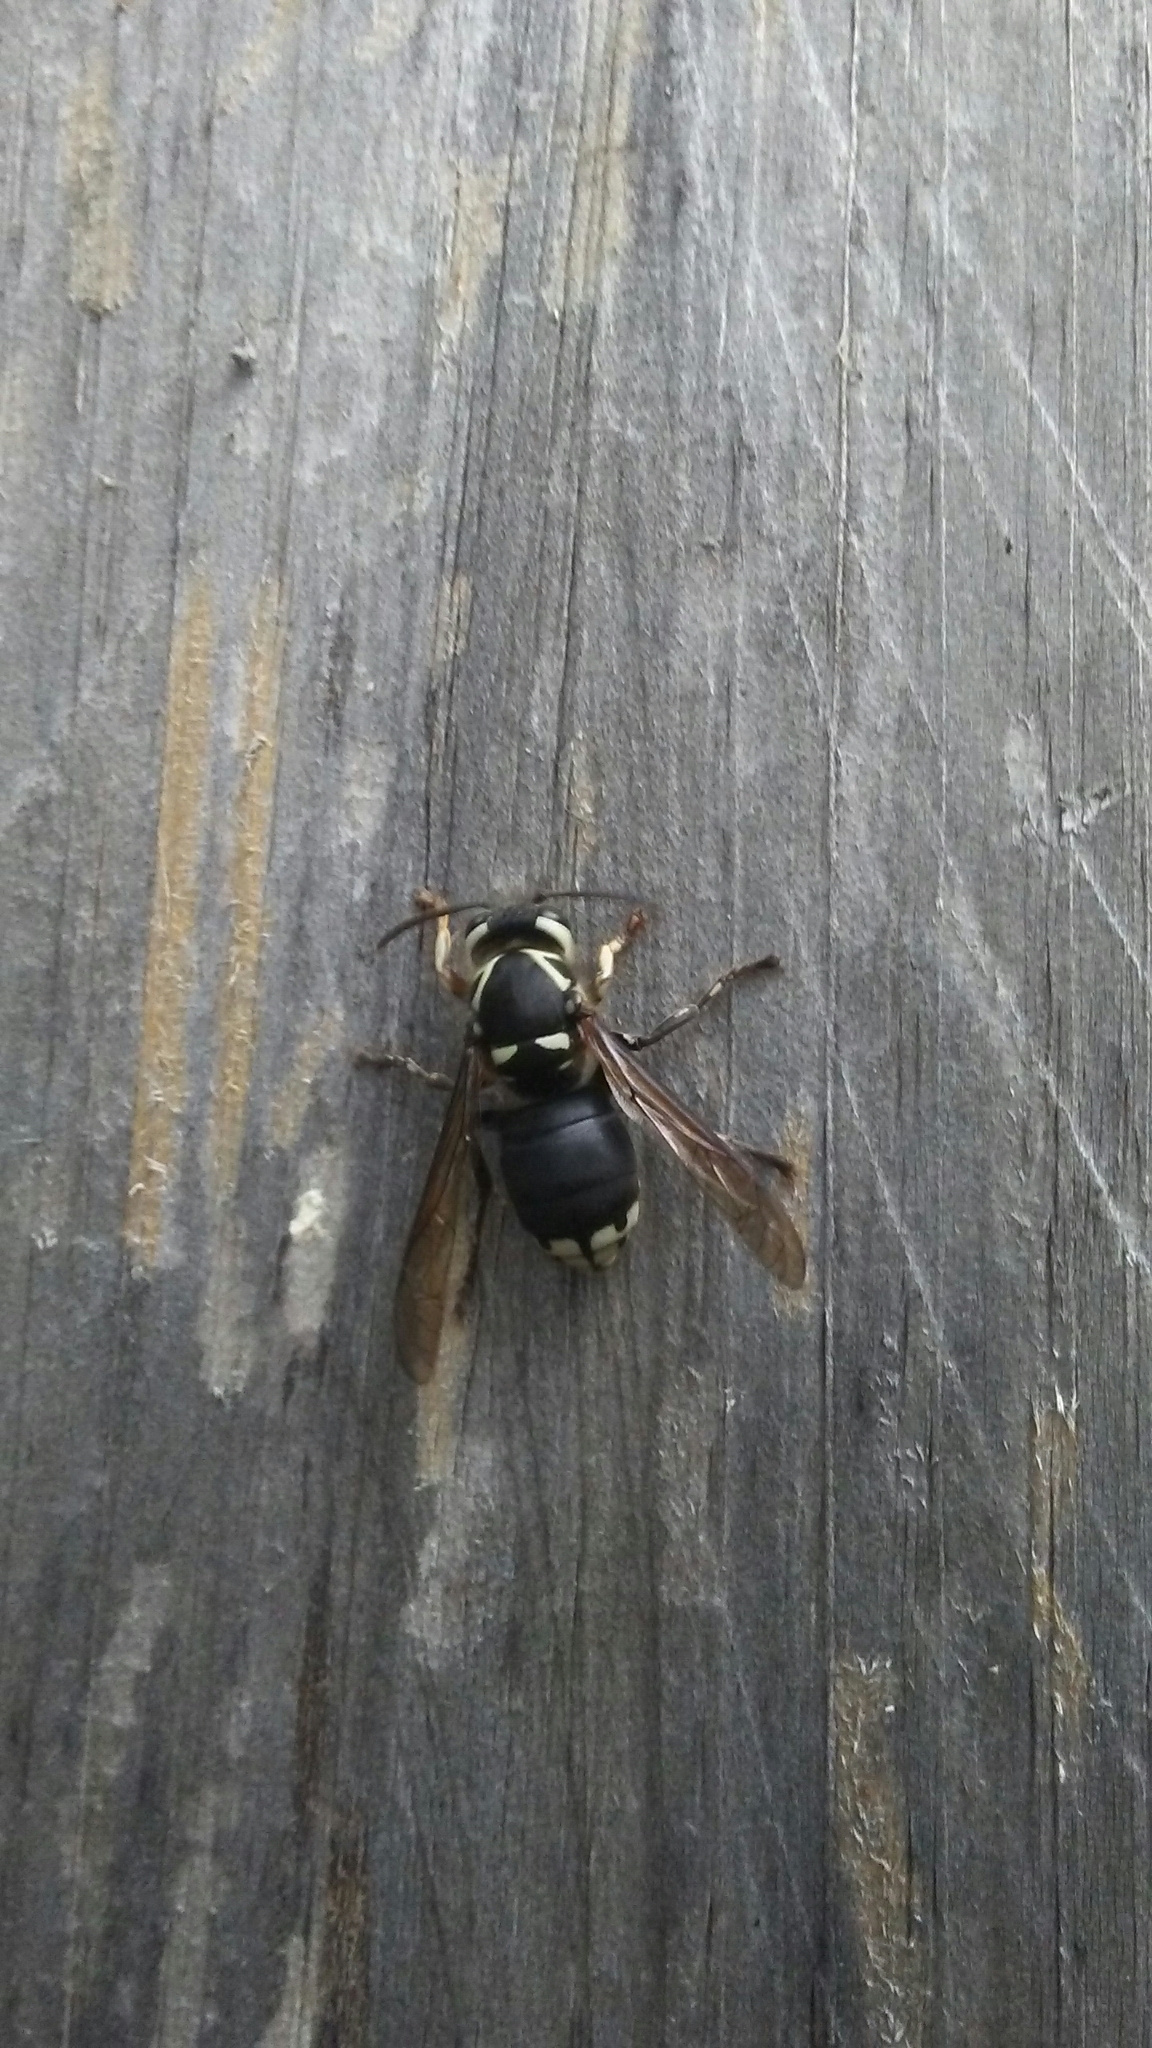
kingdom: Animalia
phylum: Arthropoda
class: Insecta
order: Hymenoptera
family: Vespidae
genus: Dolichovespula
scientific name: Dolichovespula maculata
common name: Bald-faced hornet
